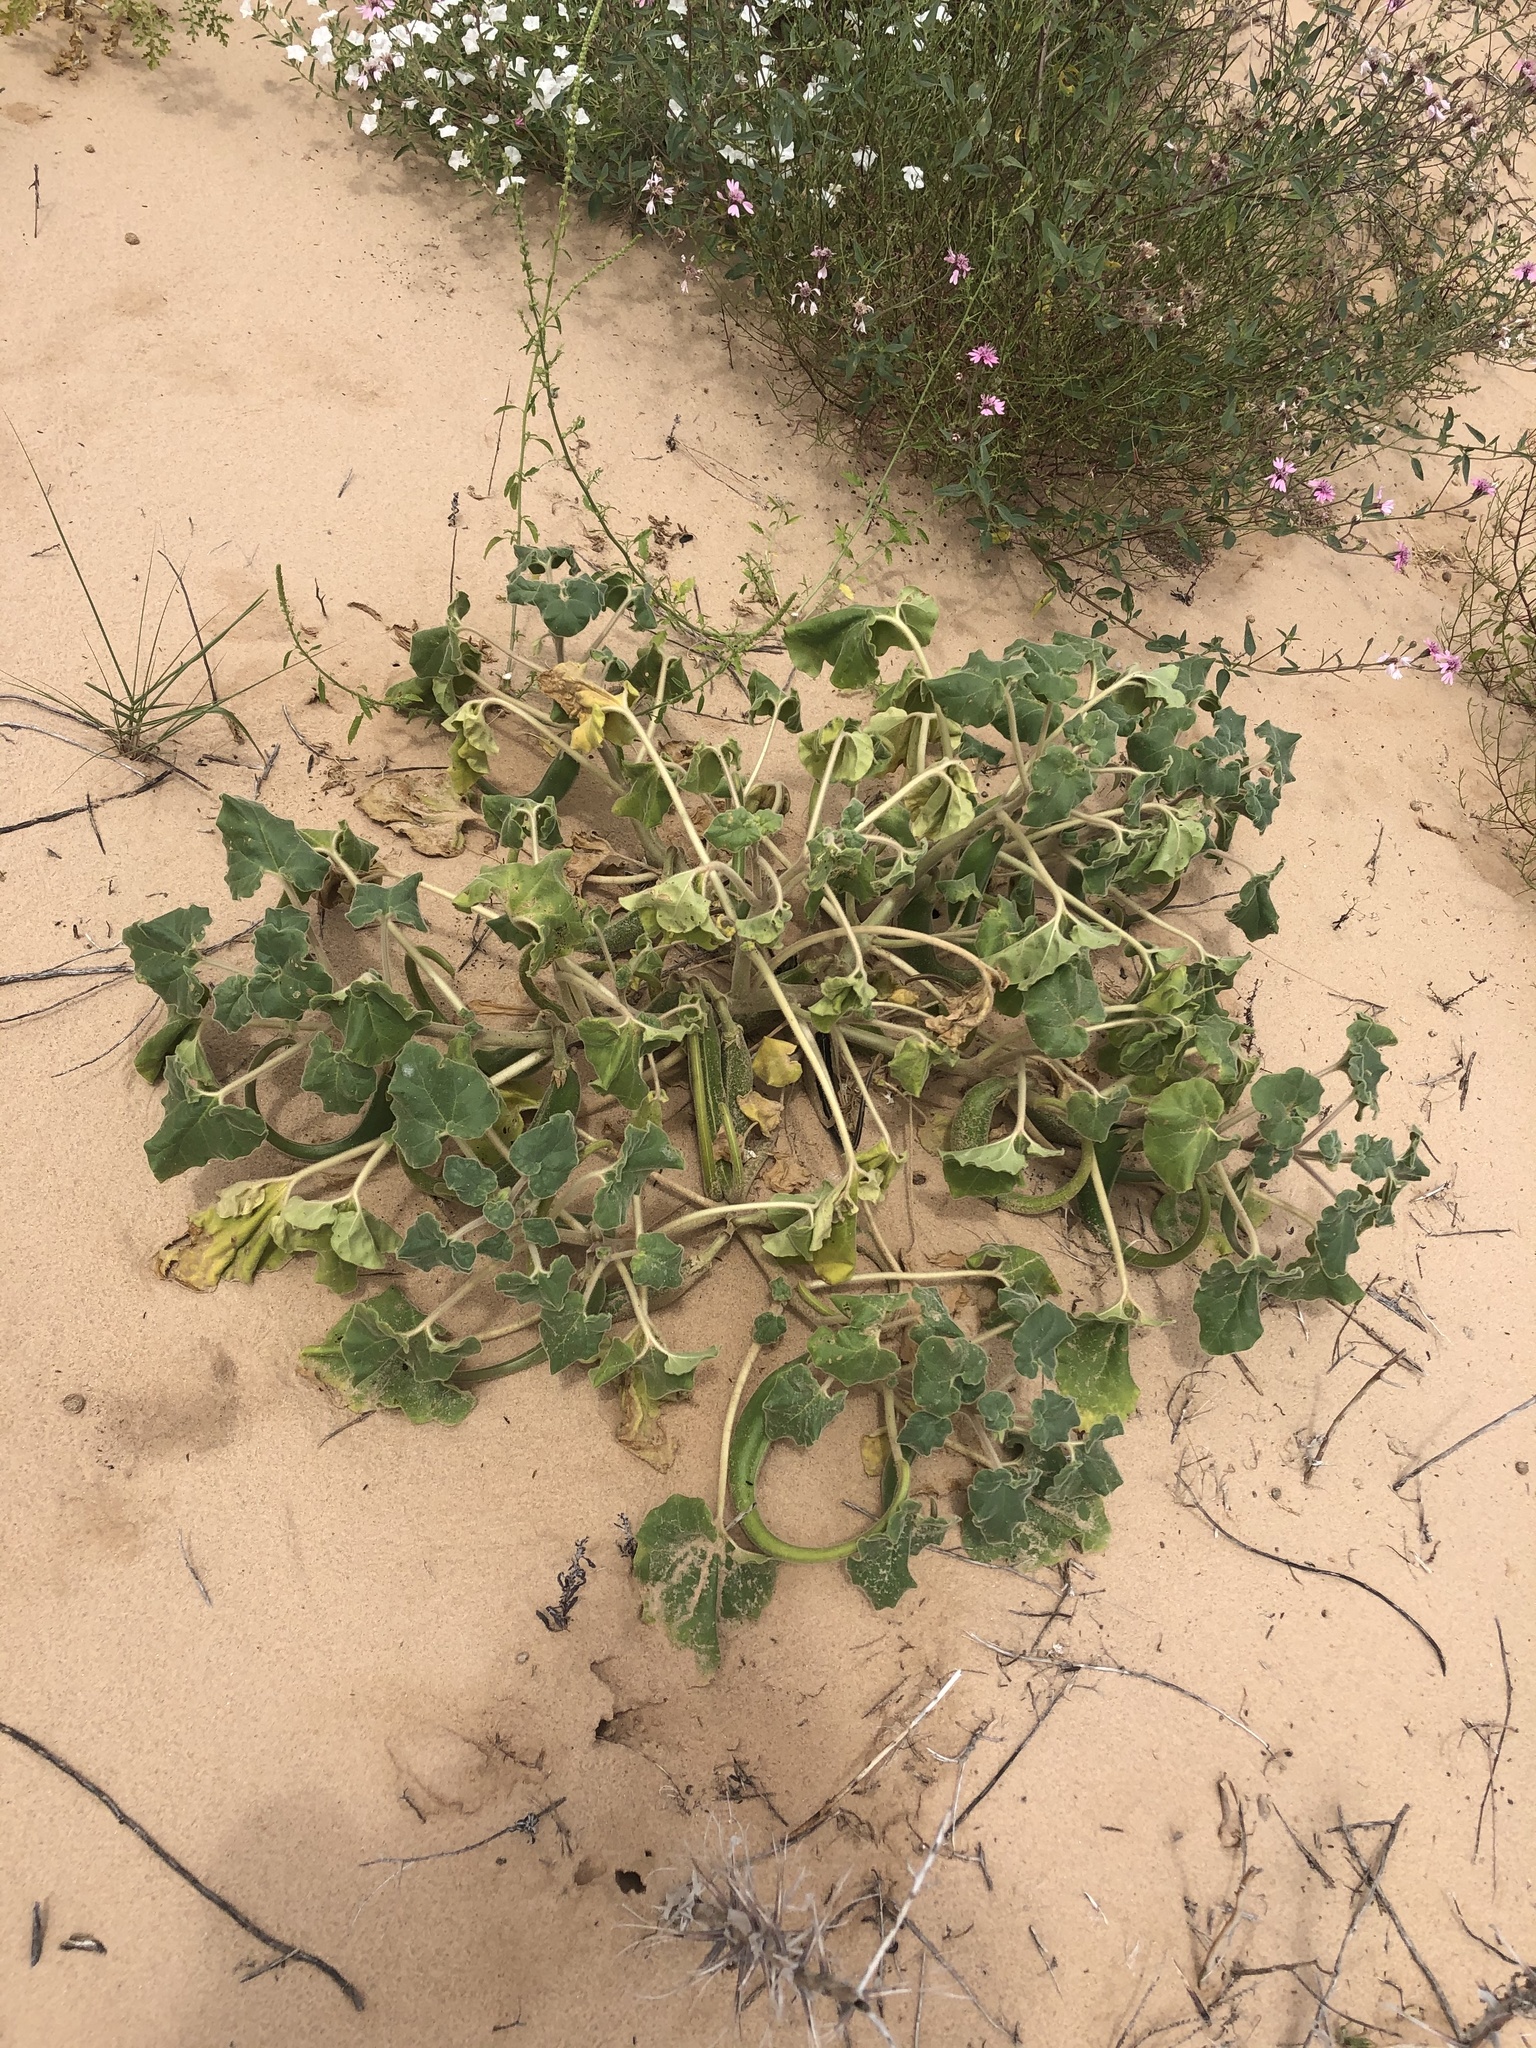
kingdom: Plantae
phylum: Tracheophyta
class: Magnoliopsida
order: Lamiales
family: Martyniaceae
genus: Proboscidea
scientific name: Proboscidea sabulosa
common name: Sand-dune devil's claw
